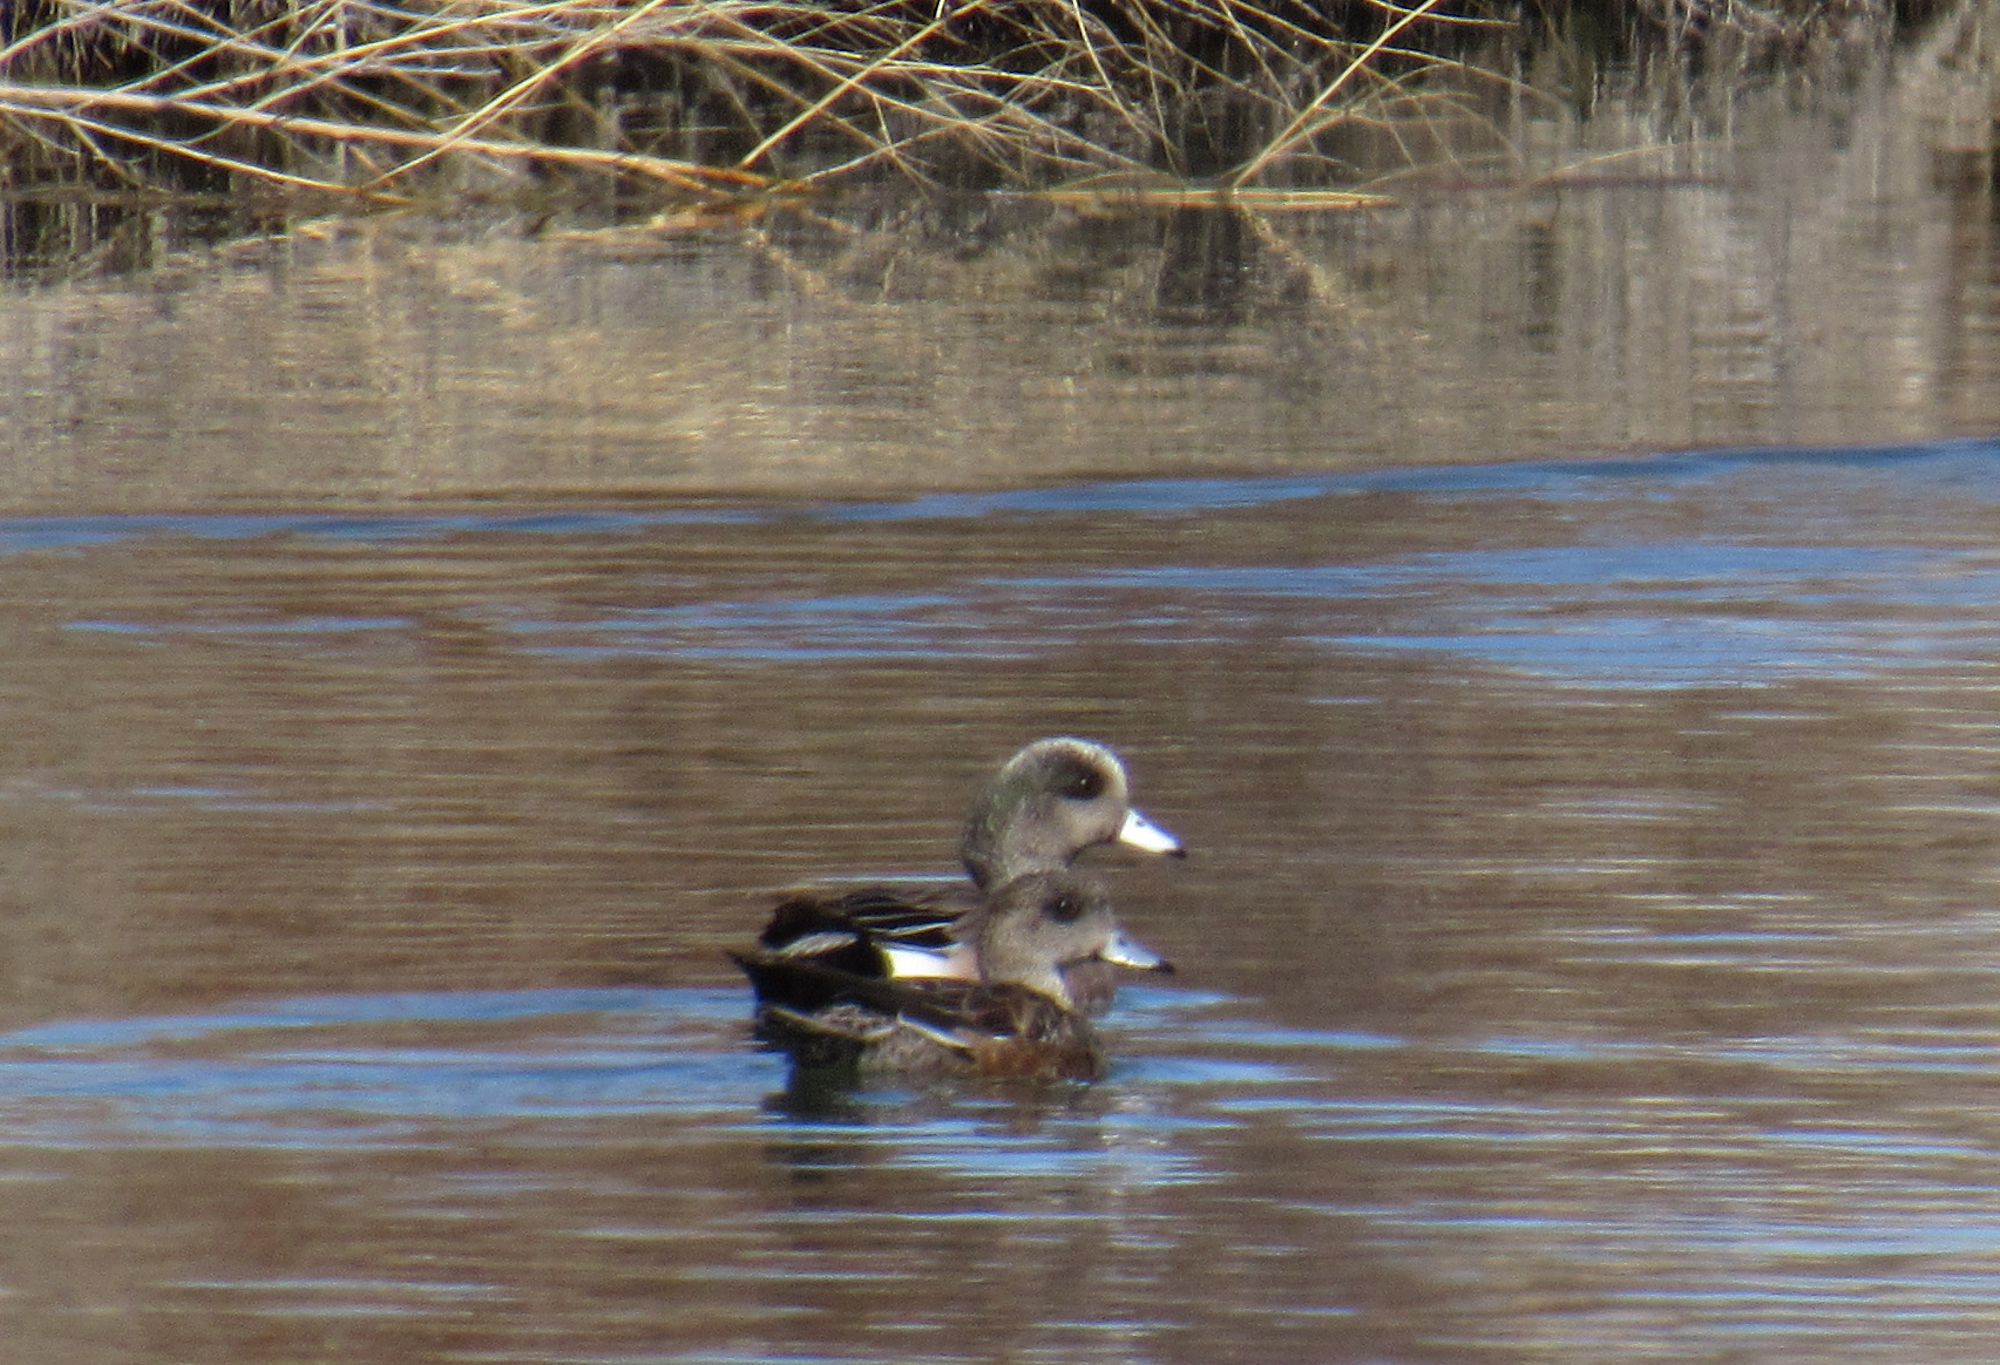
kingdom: Animalia
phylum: Chordata
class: Aves
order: Anseriformes
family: Anatidae
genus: Mareca
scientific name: Mareca americana
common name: American wigeon
